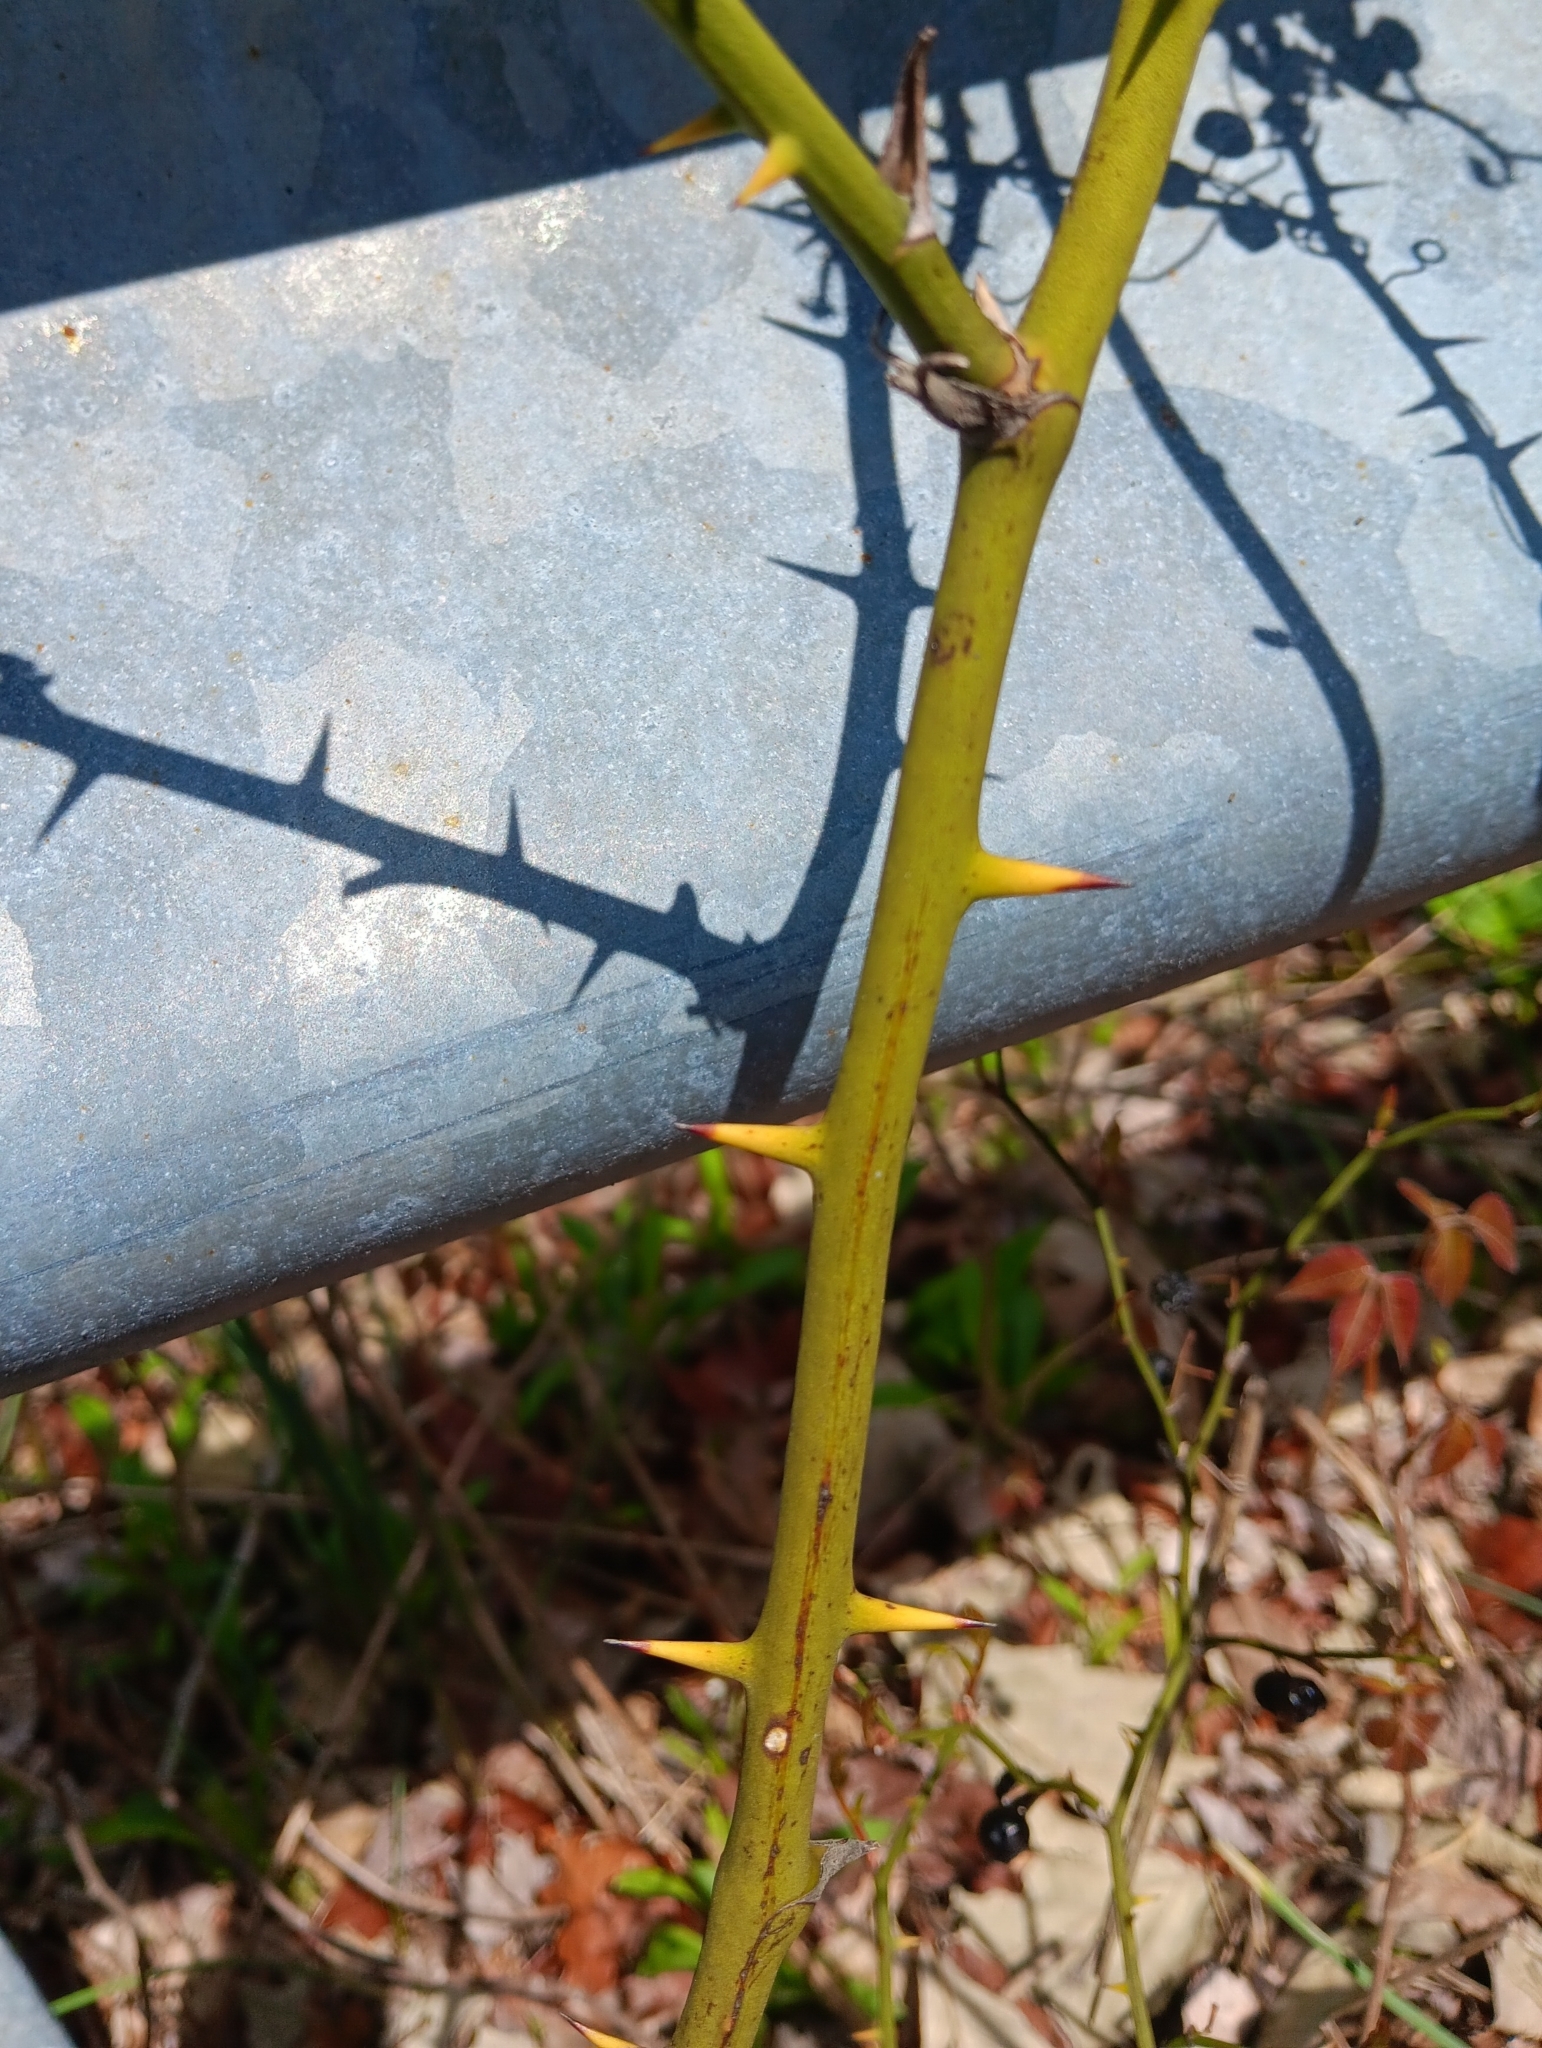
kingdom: Plantae
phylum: Tracheophyta
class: Liliopsida
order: Liliales
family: Smilacaceae
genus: Smilax
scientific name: Smilax rotundifolia
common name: Bullbriar
